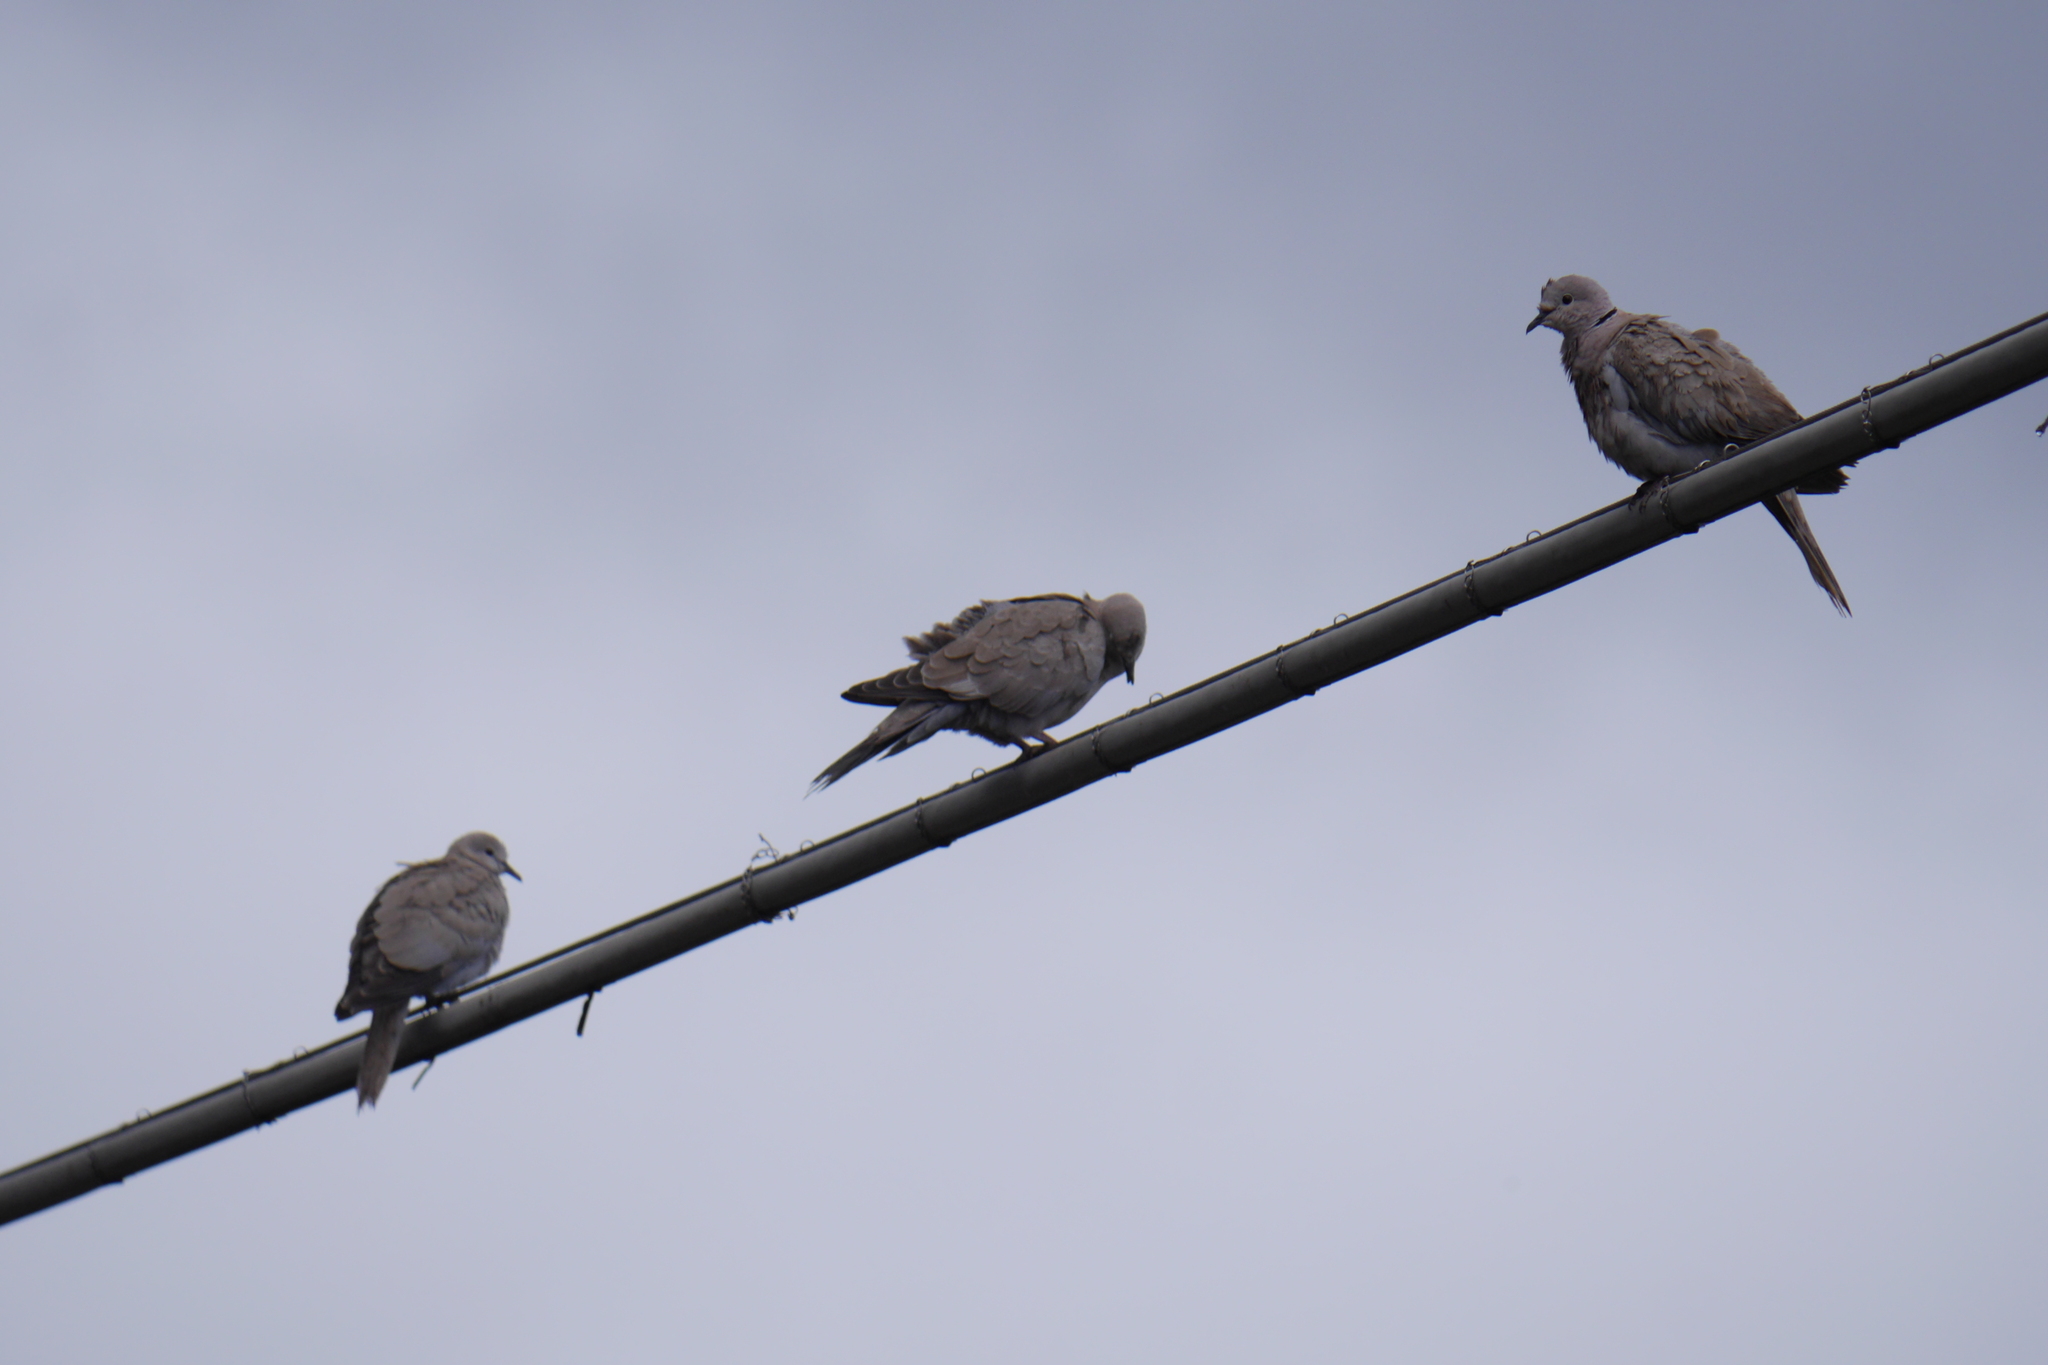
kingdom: Animalia
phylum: Chordata
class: Aves
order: Columbiformes
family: Columbidae
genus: Streptopelia
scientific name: Streptopelia decaocto
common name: Eurasian collared dove
